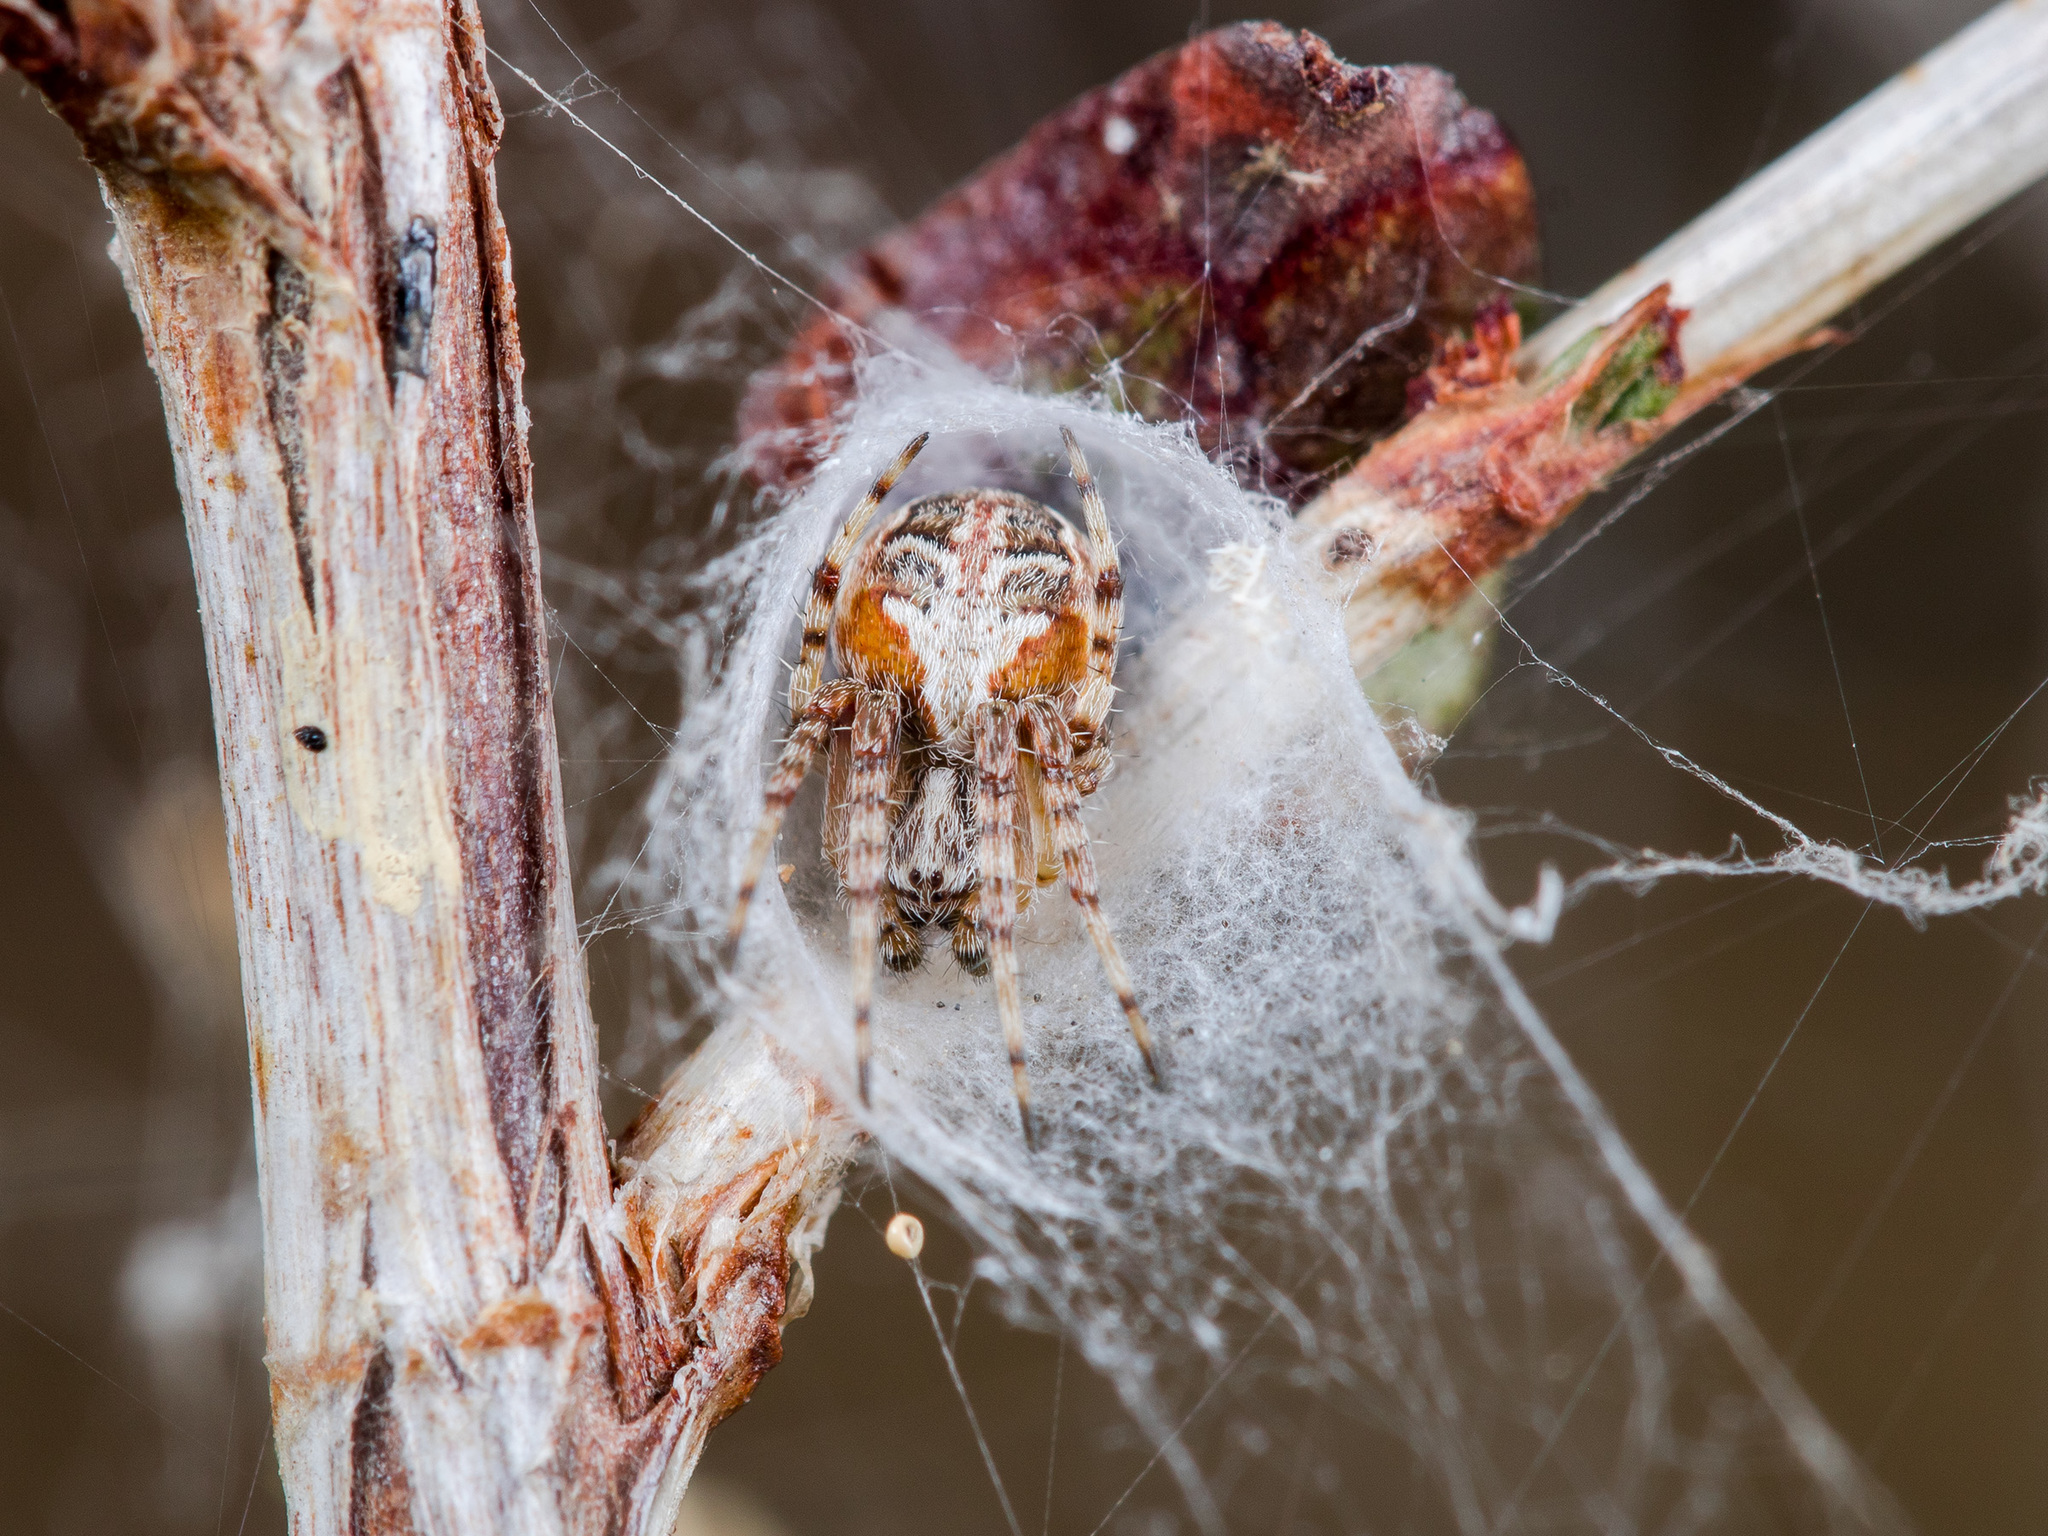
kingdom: Animalia
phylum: Arthropoda
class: Arachnida
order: Araneae
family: Araneidae
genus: Araneus
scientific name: Araneus pallasi
